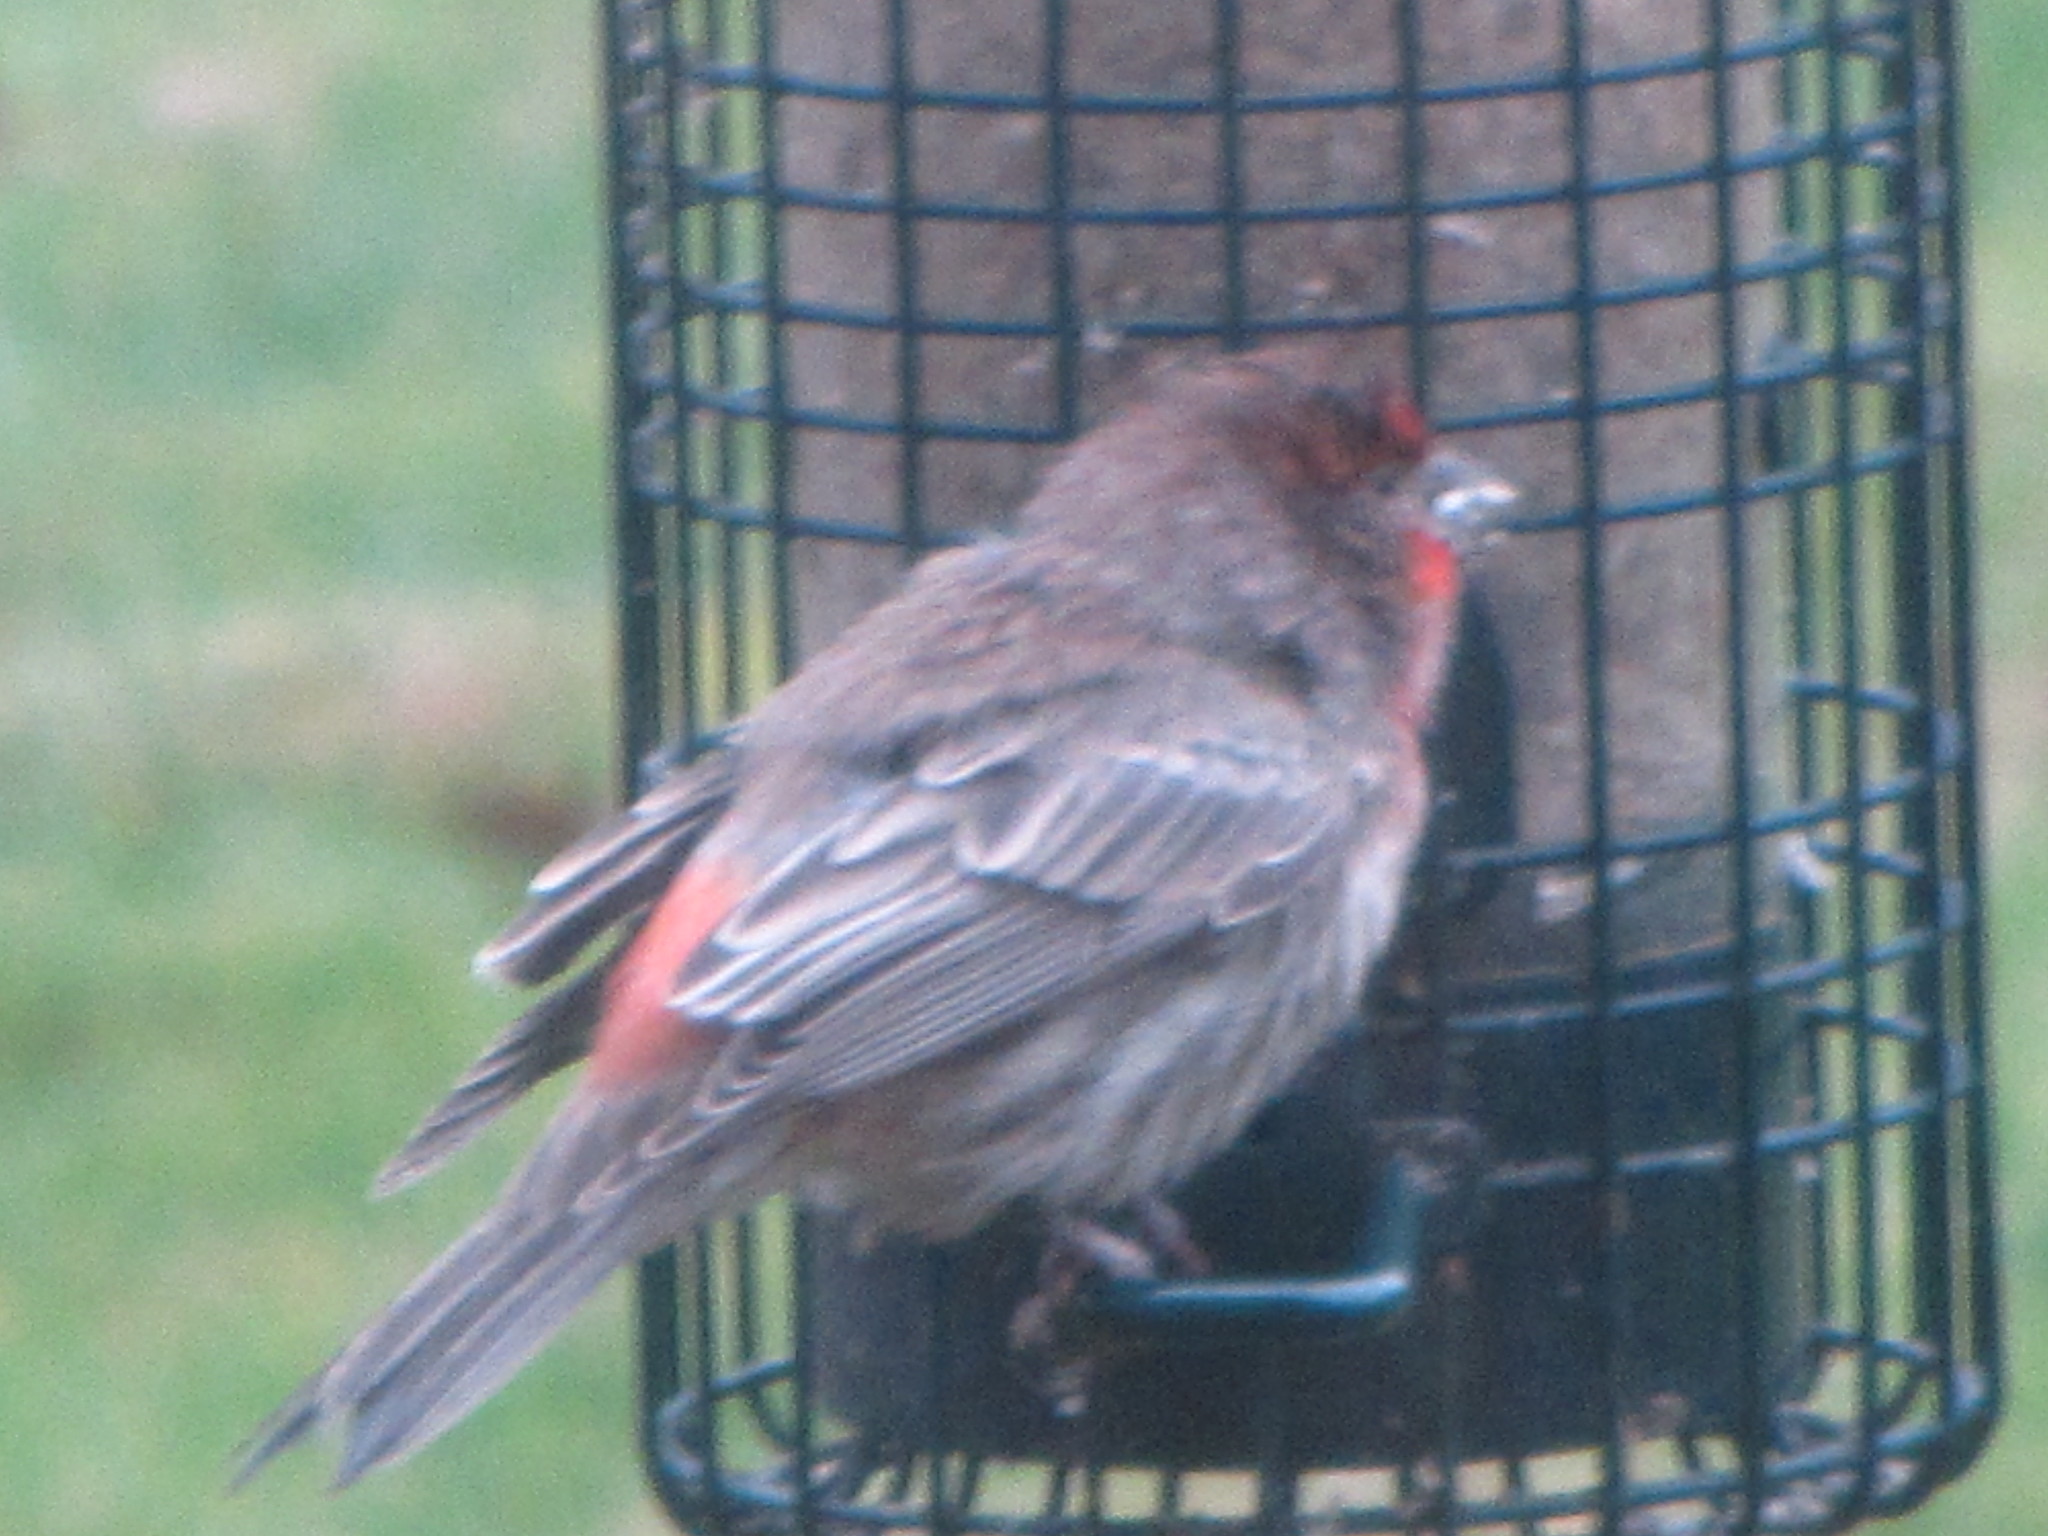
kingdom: Animalia
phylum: Chordata
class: Aves
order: Passeriformes
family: Fringillidae
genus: Haemorhous
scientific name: Haemorhous mexicanus
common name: House finch
